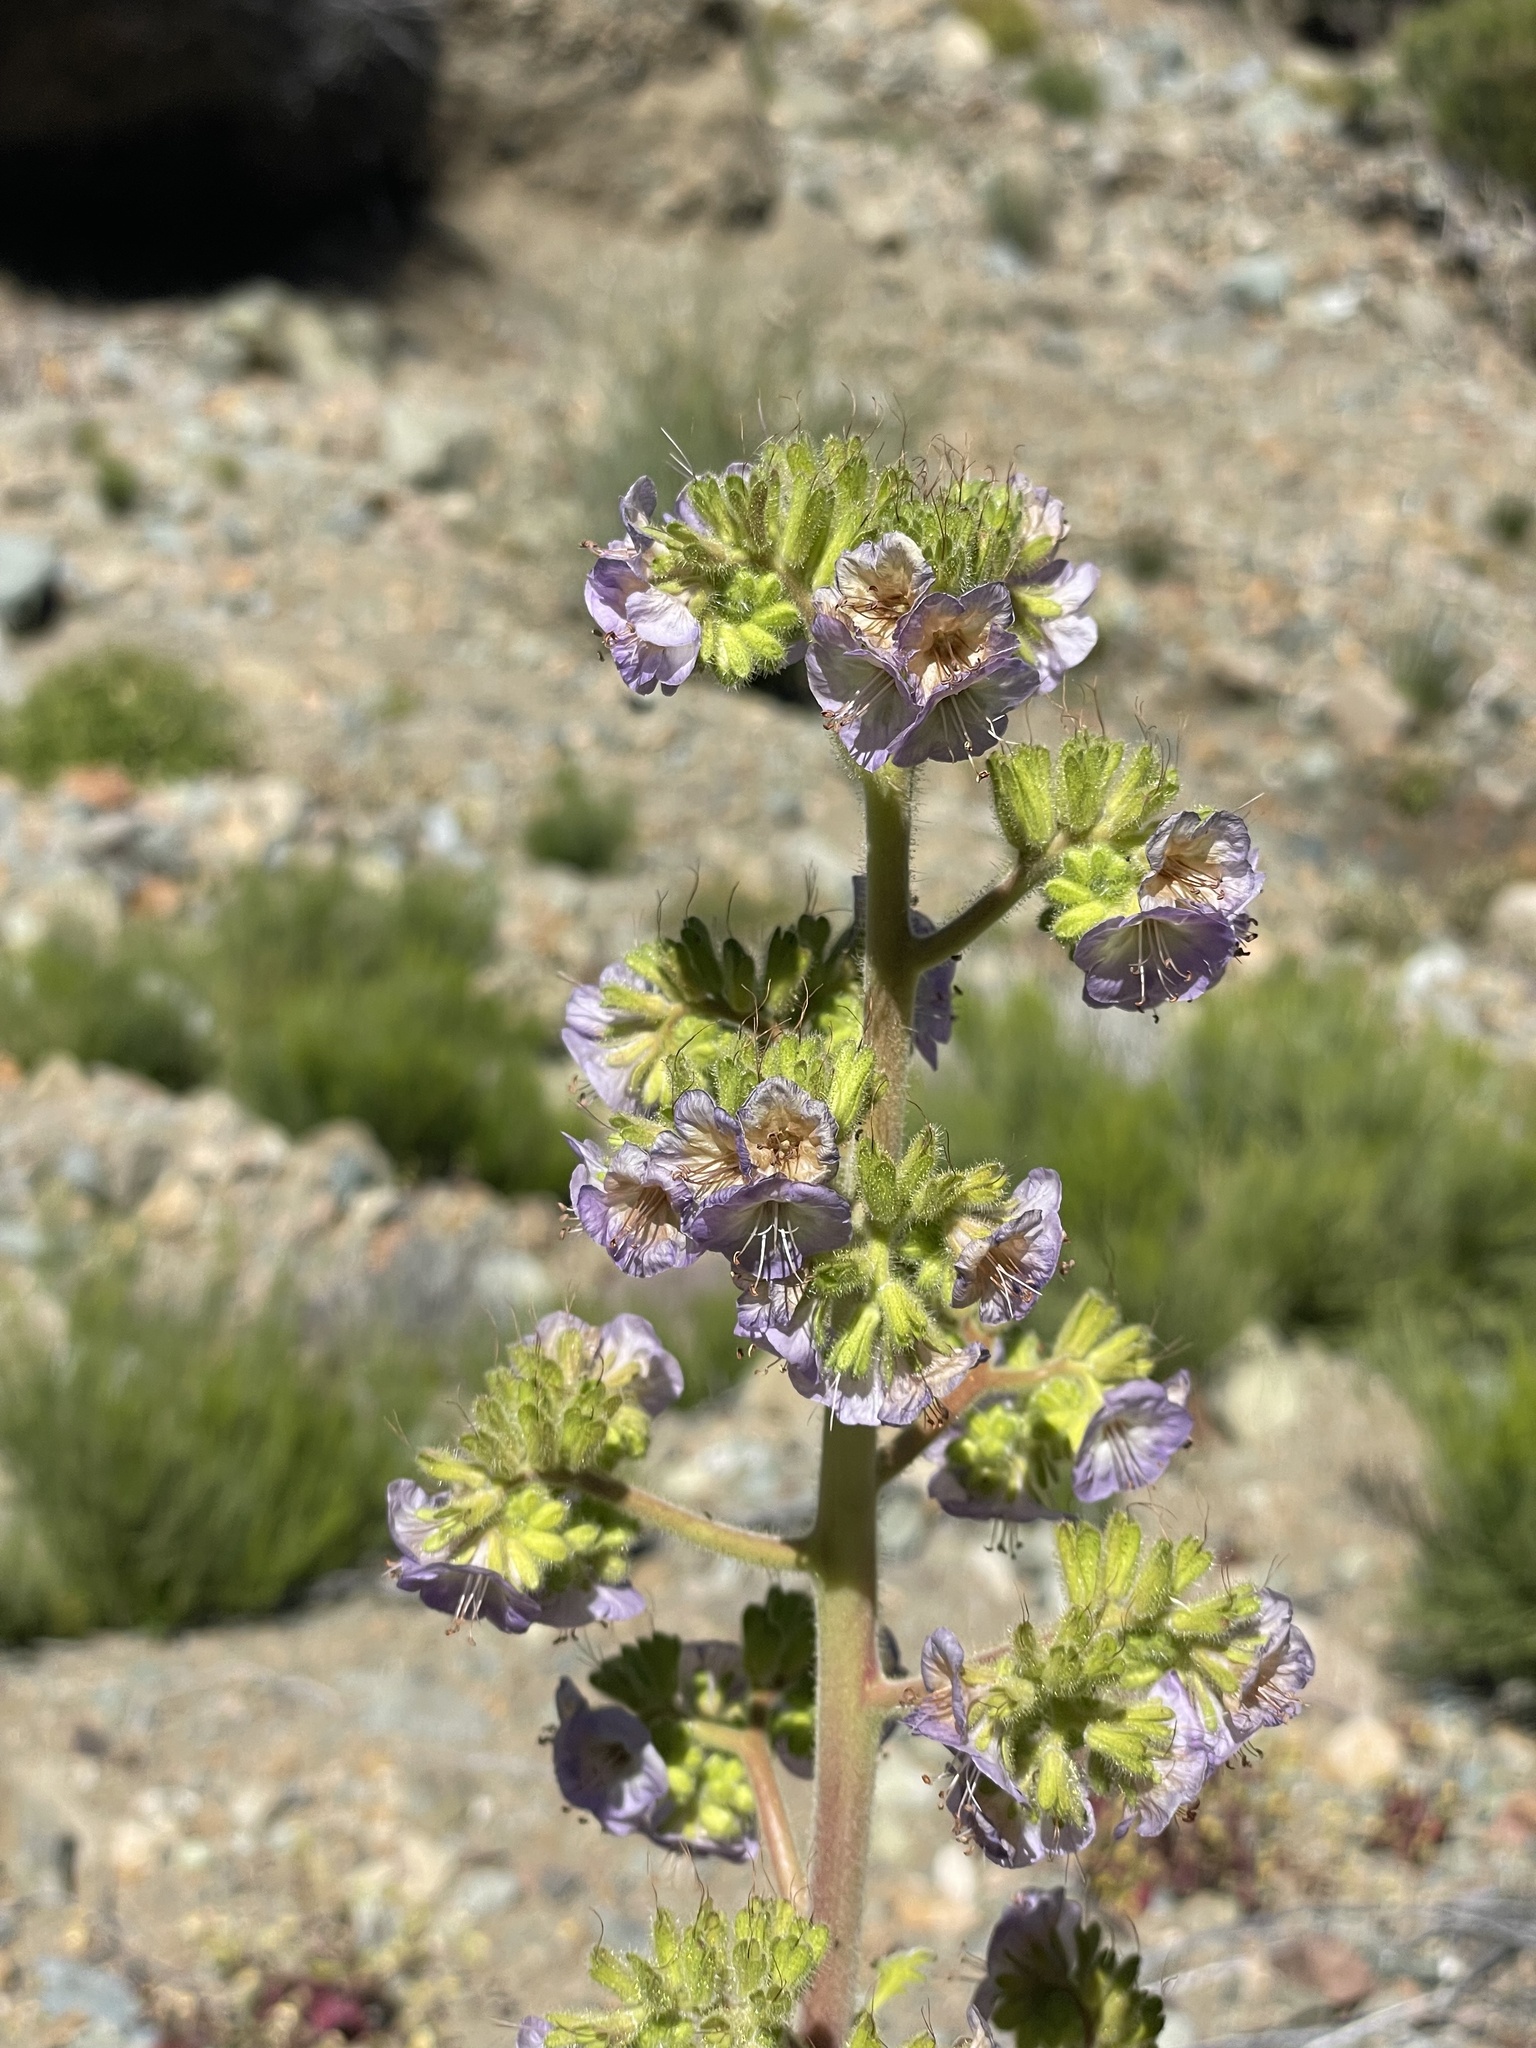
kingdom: Plantae
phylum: Tracheophyta
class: Magnoliopsida
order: Boraginales
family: Hydrophyllaceae
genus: Phacelia
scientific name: Phacelia ixodes
